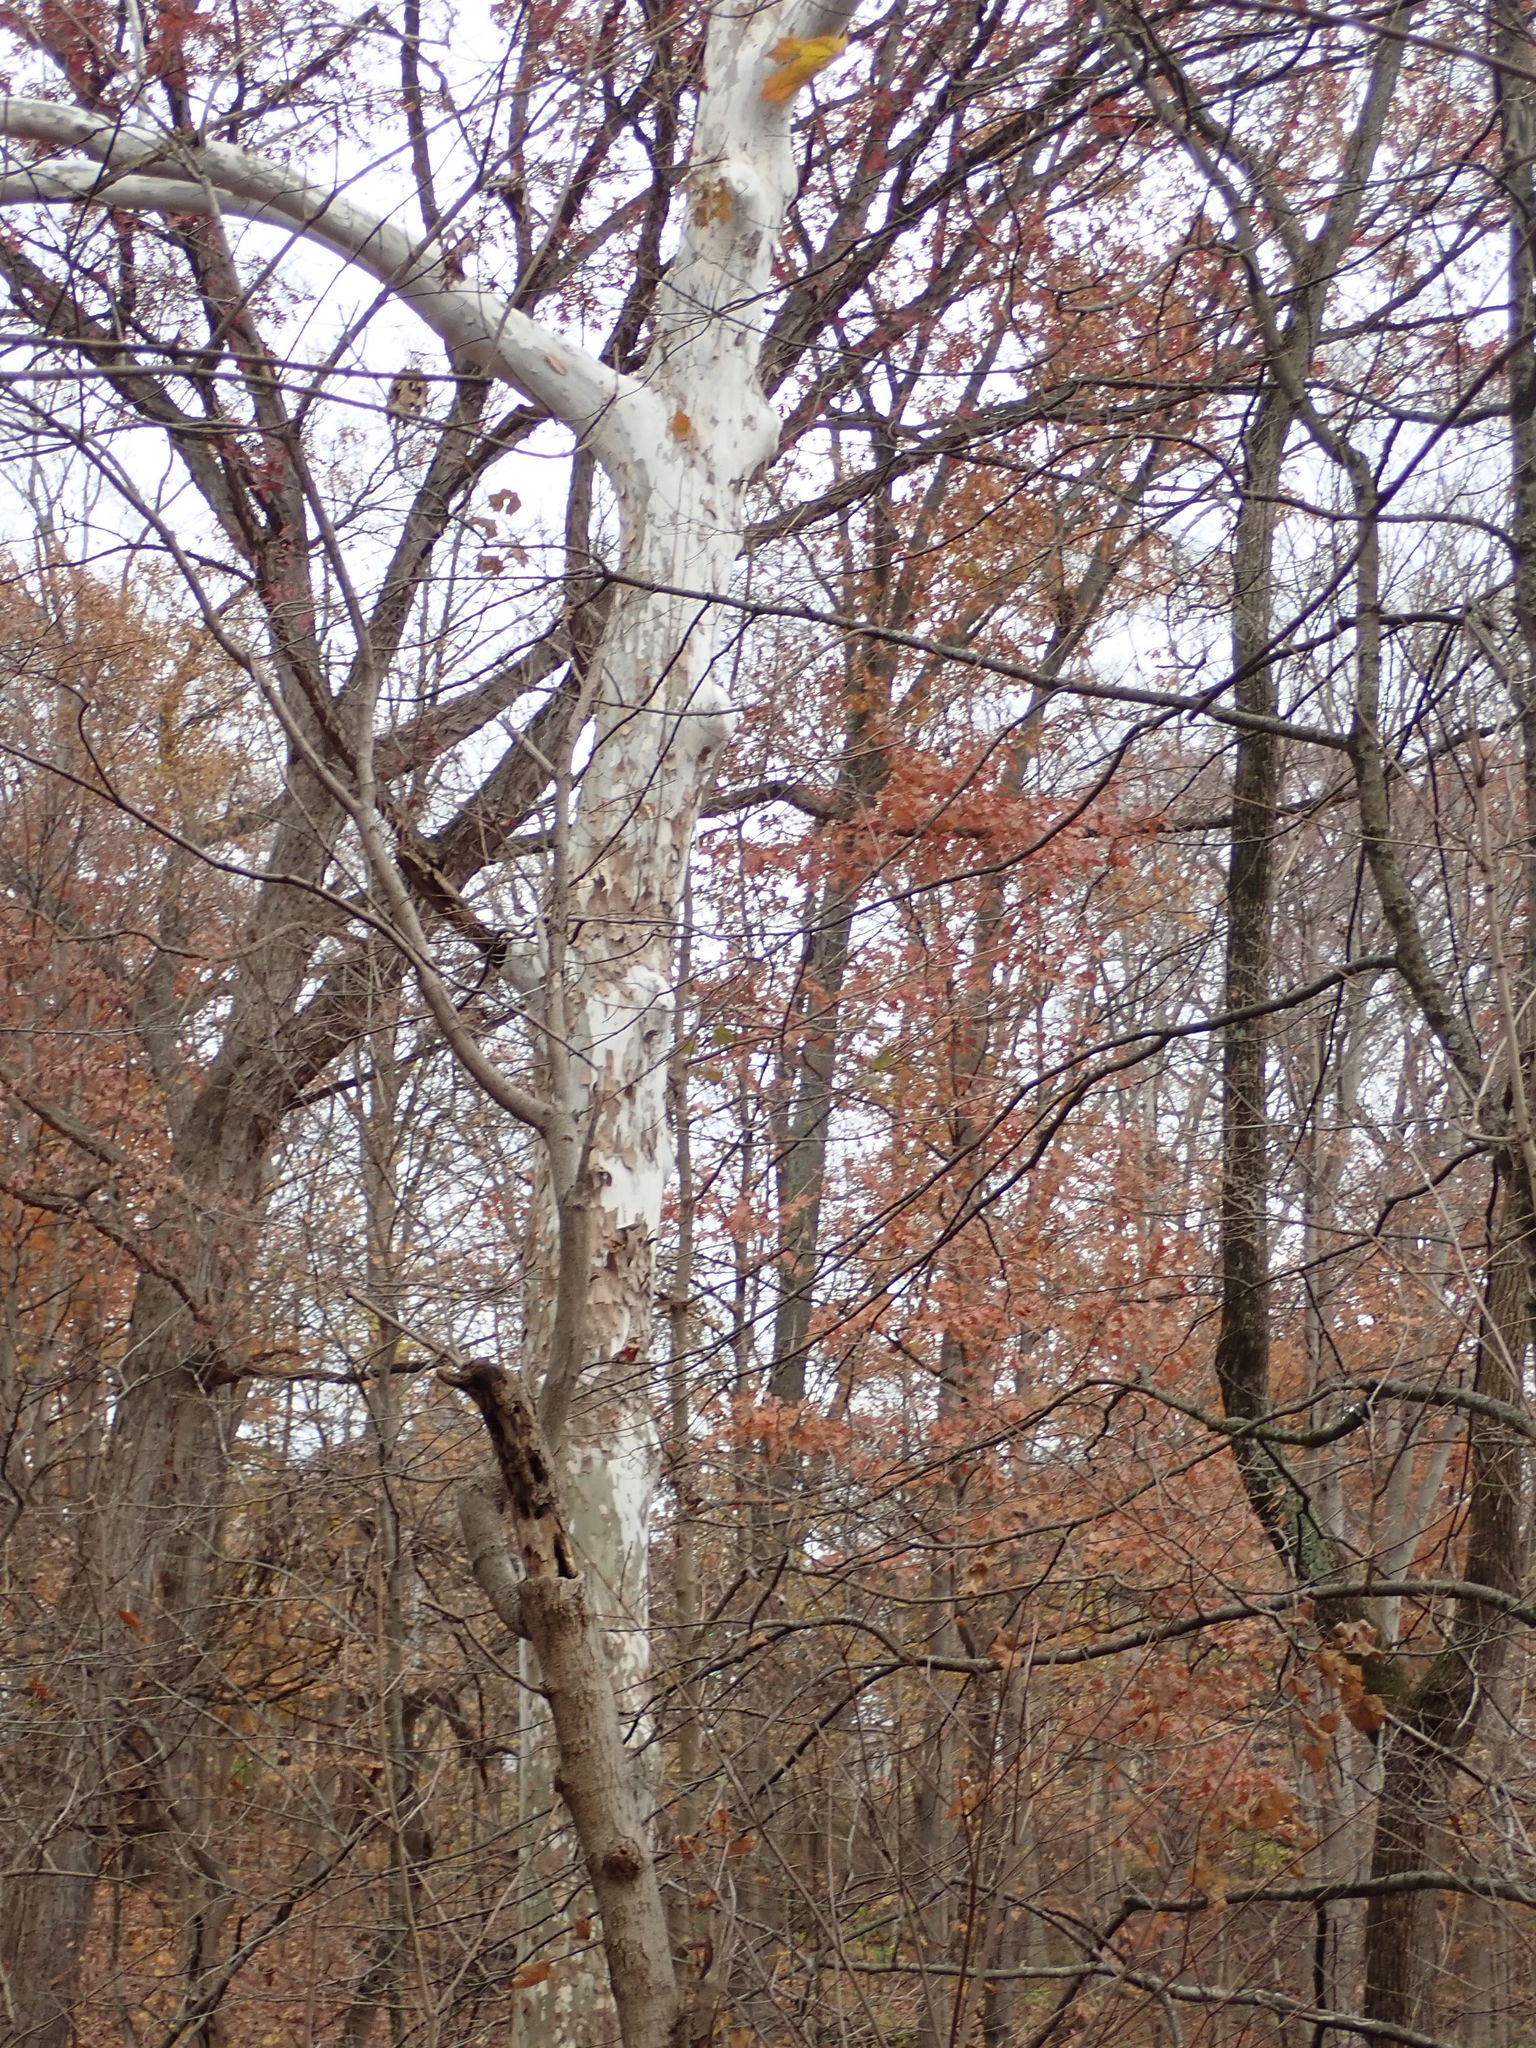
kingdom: Plantae
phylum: Tracheophyta
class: Magnoliopsida
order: Proteales
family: Platanaceae
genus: Platanus
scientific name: Platanus occidentalis
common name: American sycamore
